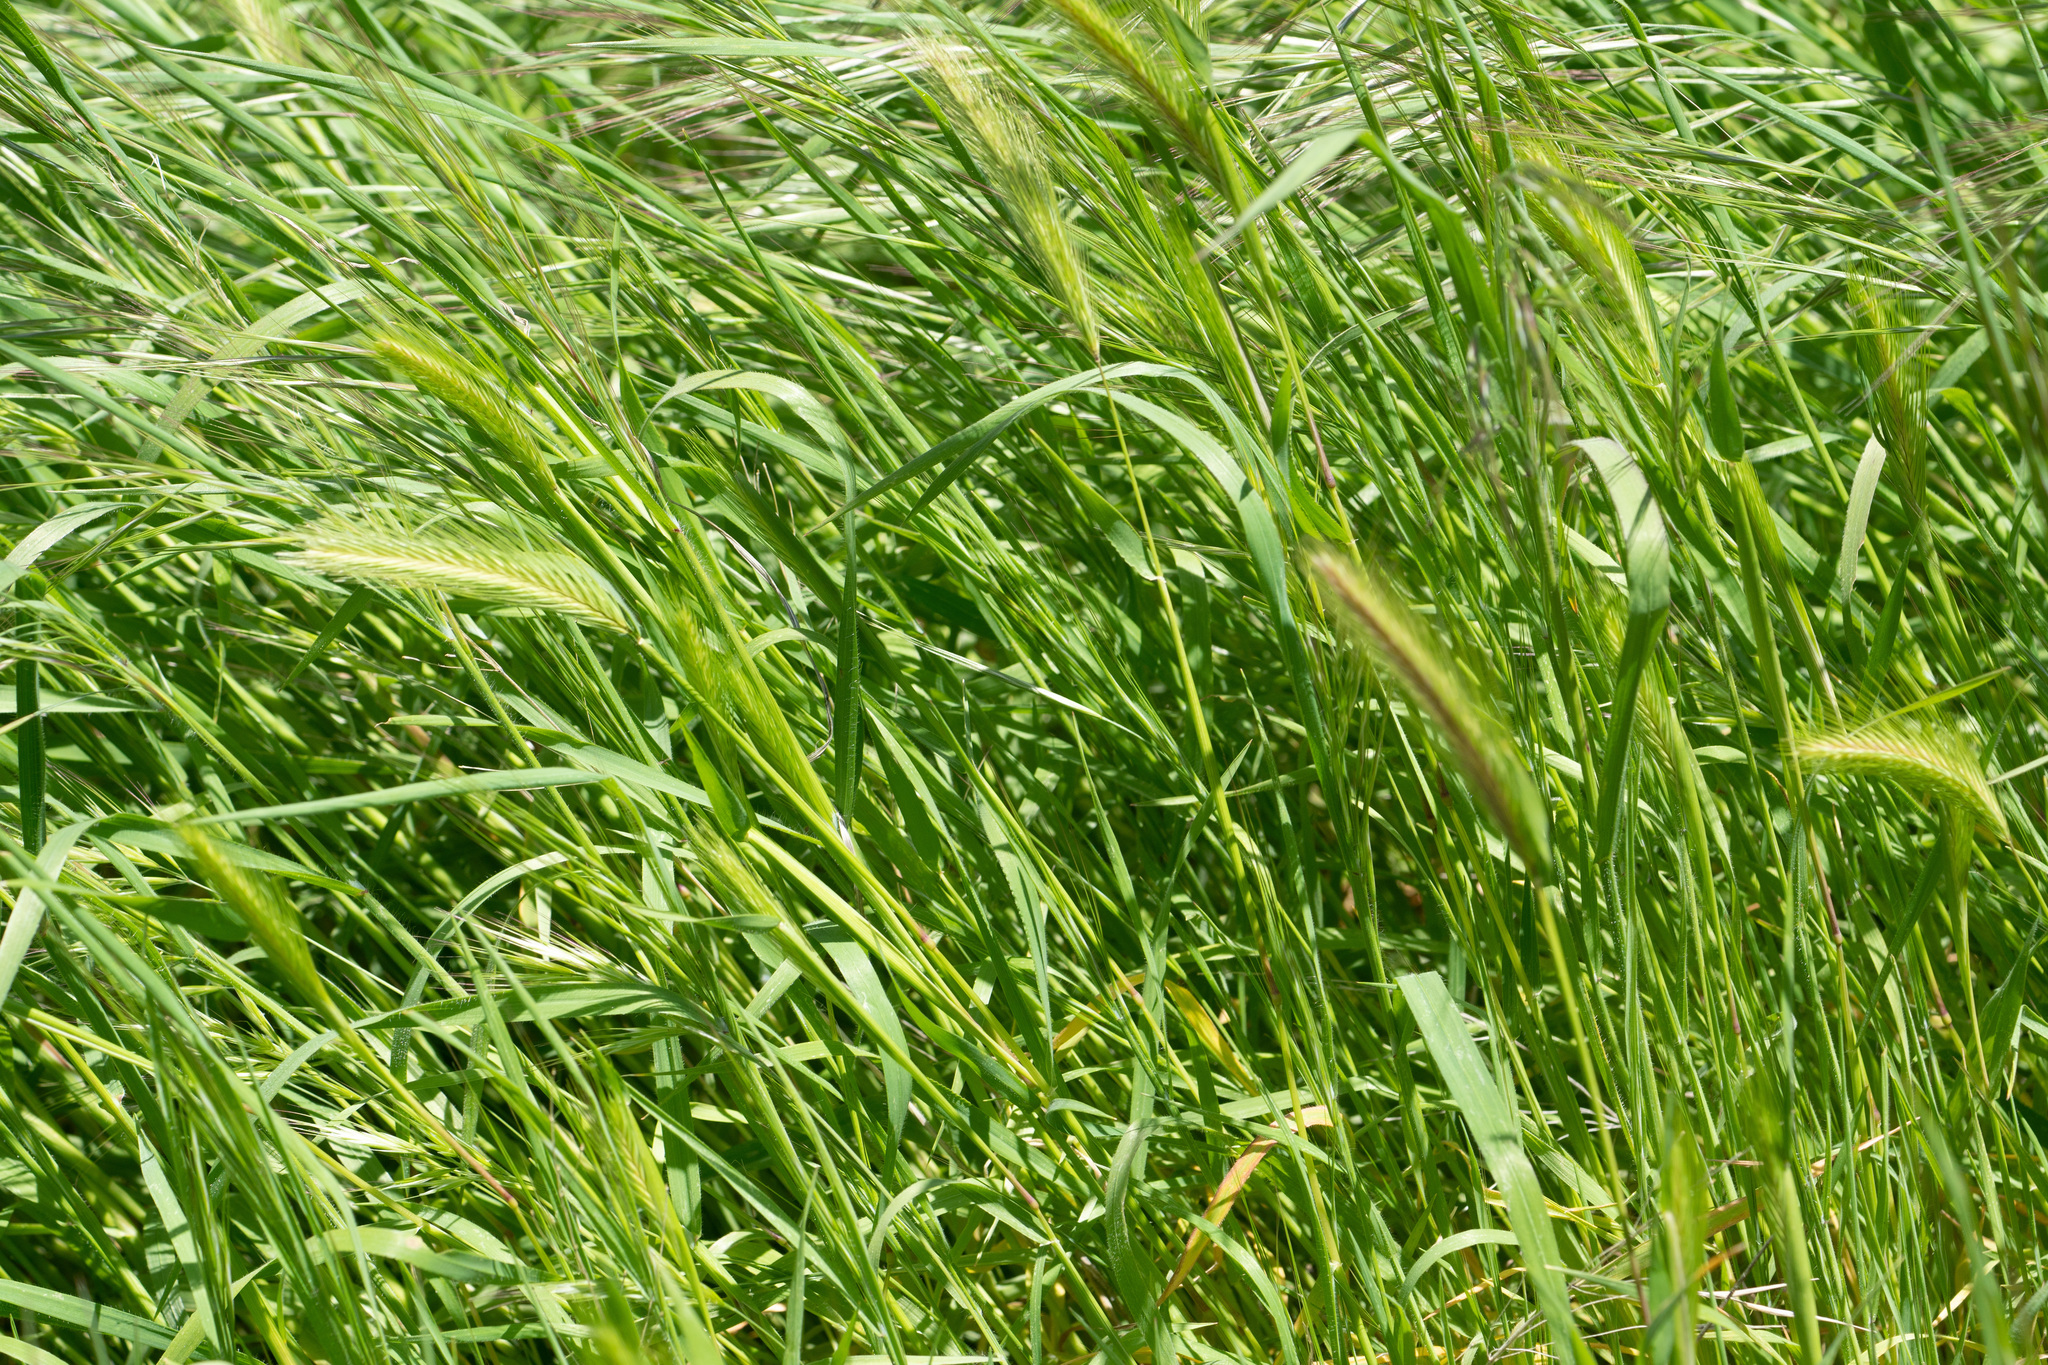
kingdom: Plantae
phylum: Tracheophyta
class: Liliopsida
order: Poales
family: Poaceae
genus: Hordeum
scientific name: Hordeum murinum
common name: Wall barley
